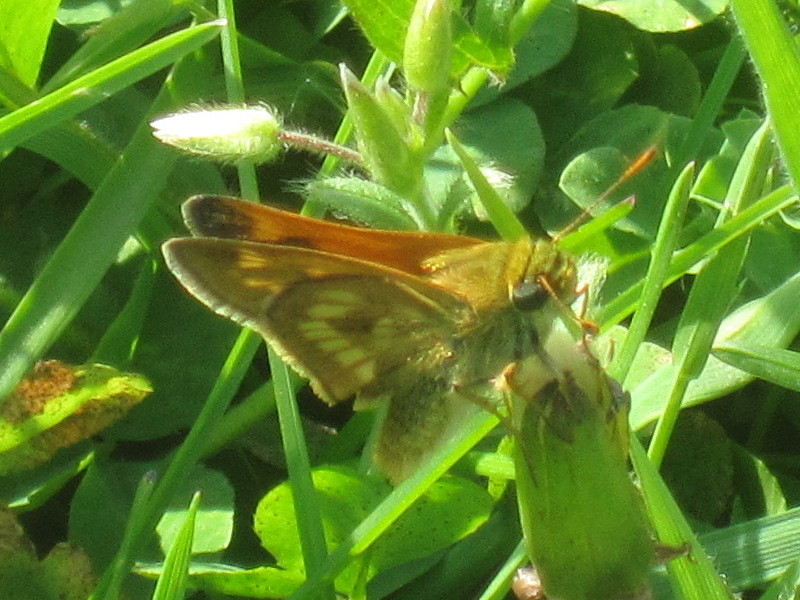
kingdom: Animalia
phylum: Arthropoda
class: Insecta
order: Lepidoptera
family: Hesperiidae
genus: Polites
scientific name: Polites mystic
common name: Long dash
